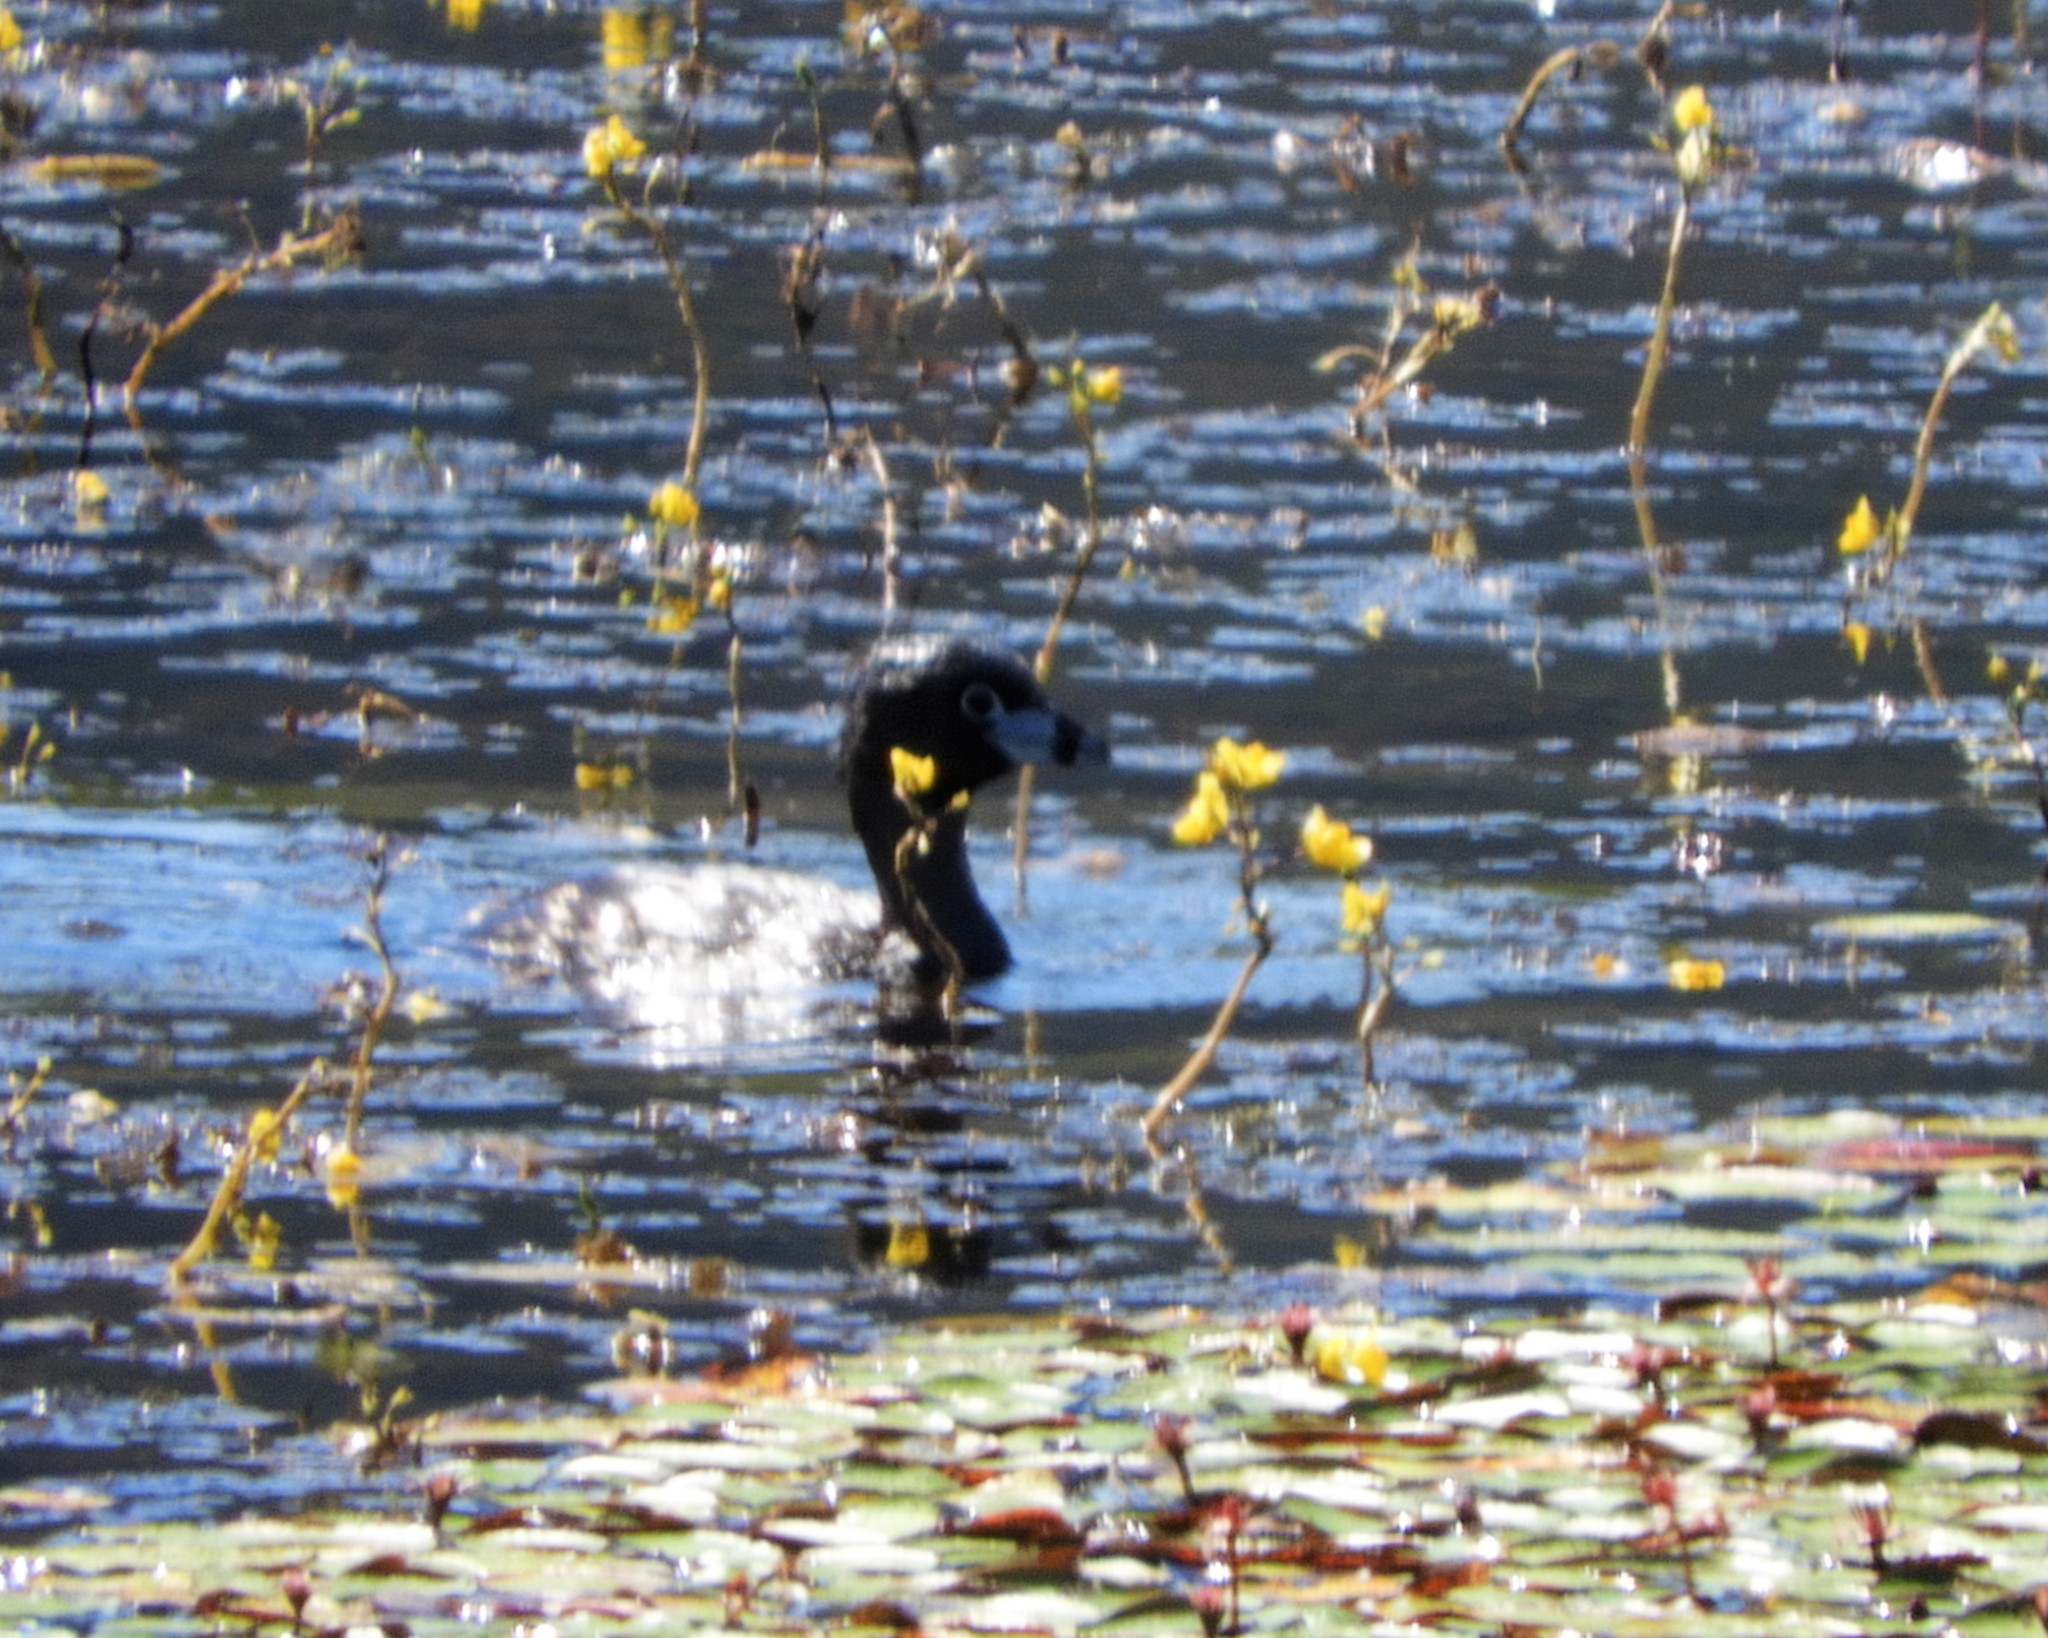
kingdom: Animalia
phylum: Chordata
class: Aves
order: Podicipediformes
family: Podicipedidae
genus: Podilymbus
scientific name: Podilymbus podiceps
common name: Pied-billed grebe
